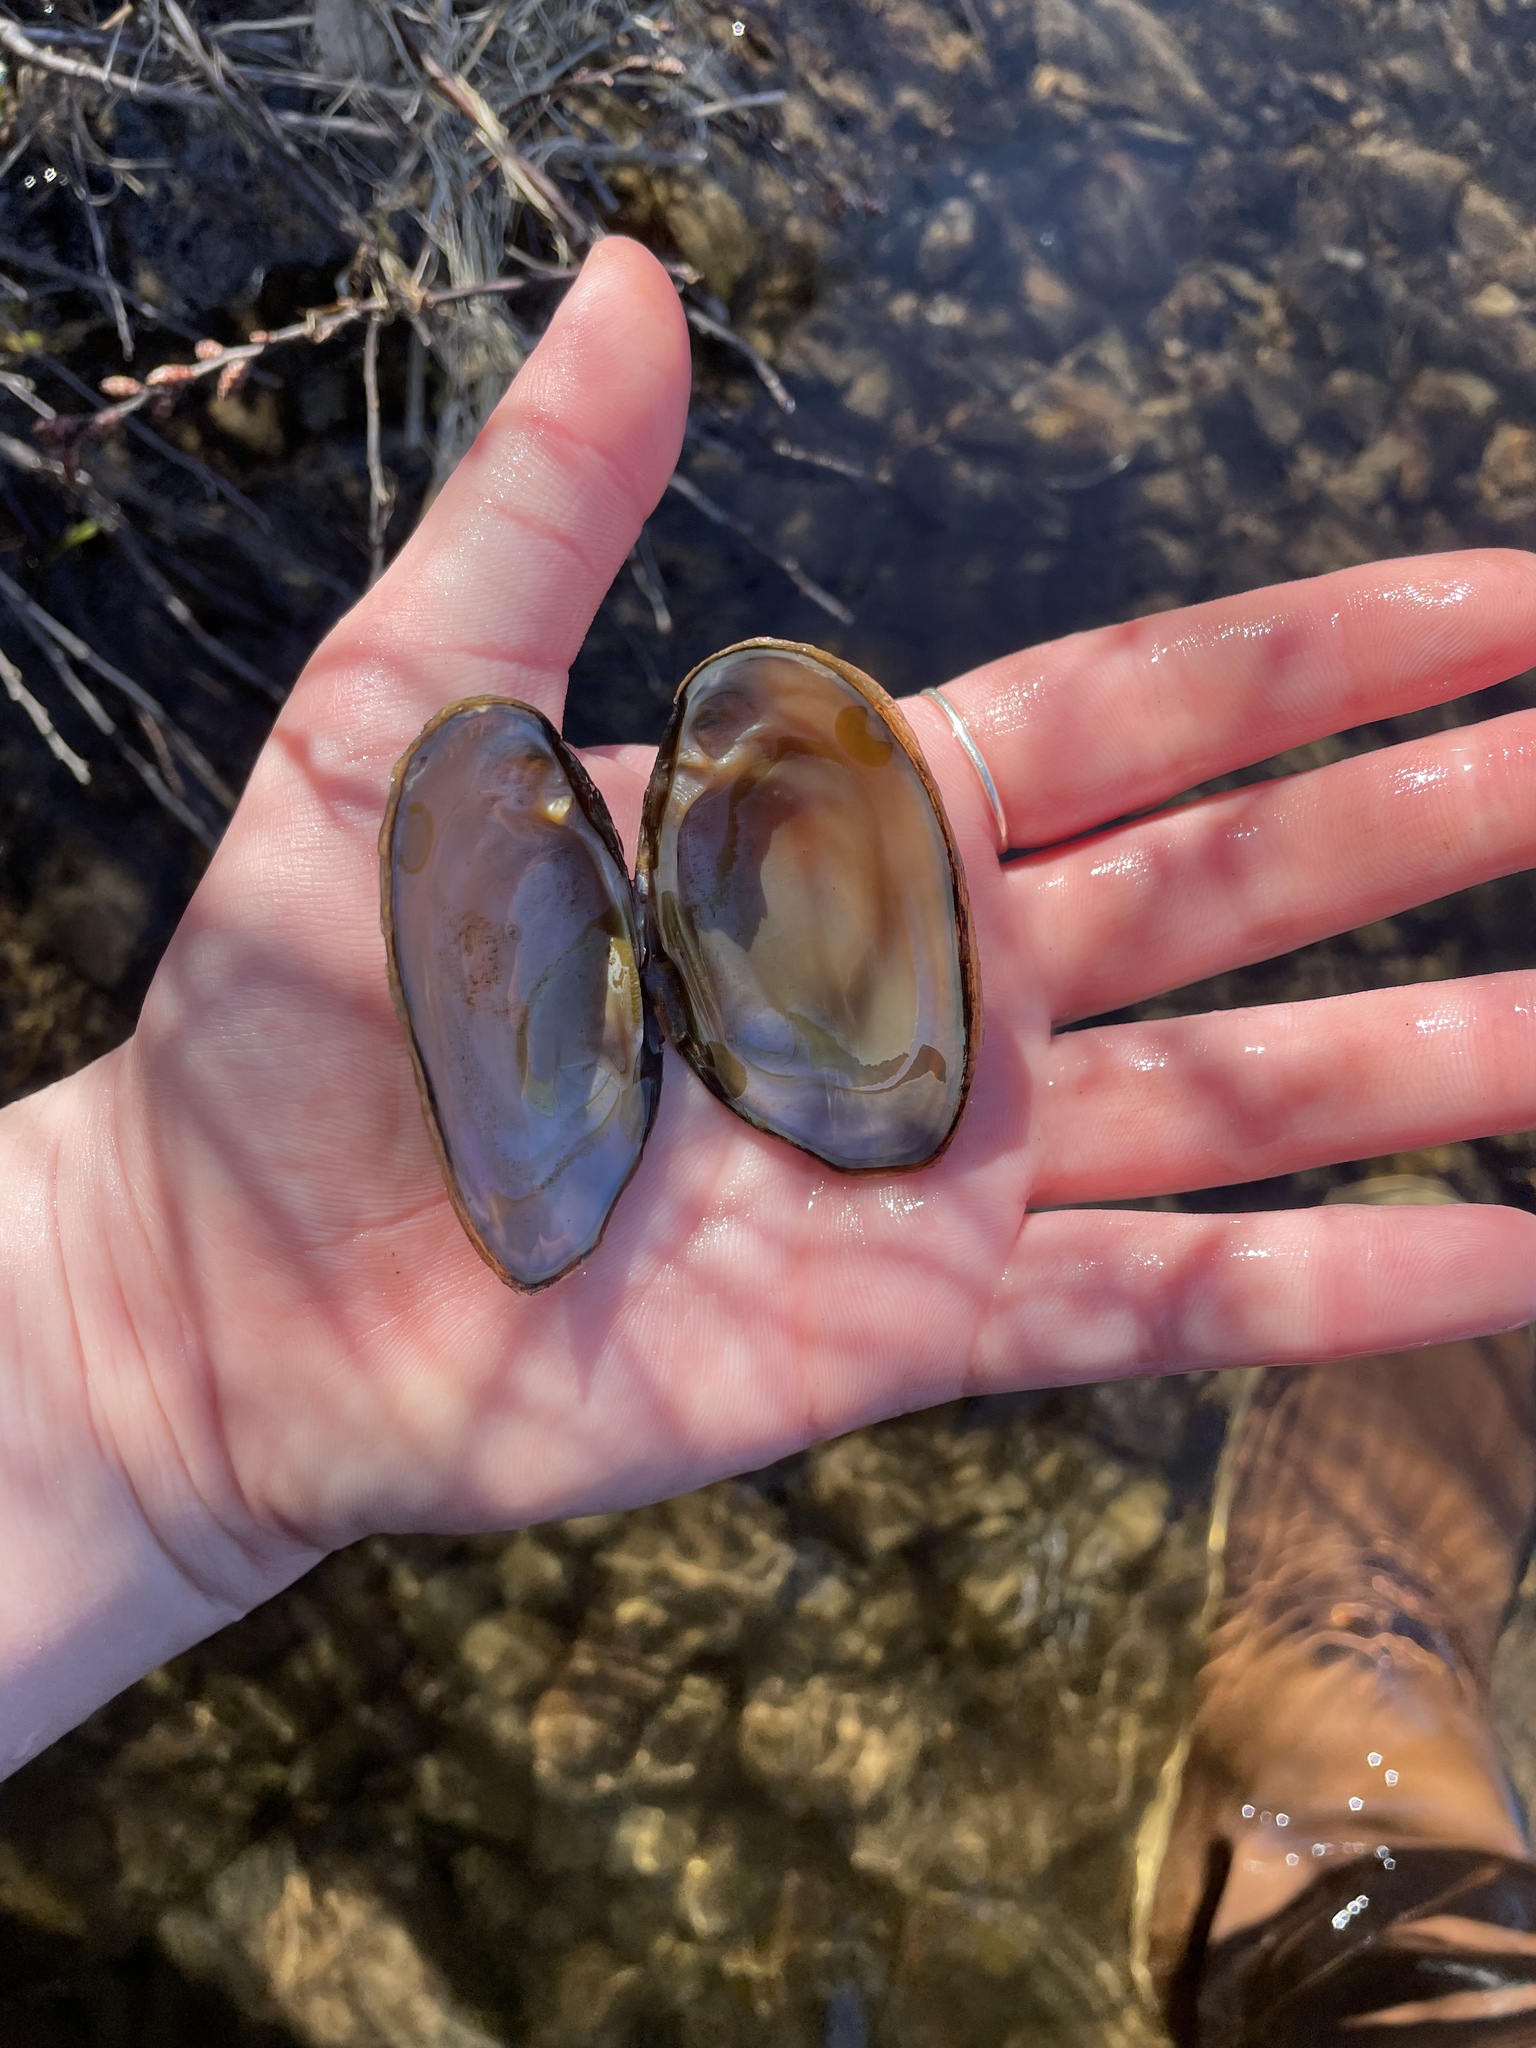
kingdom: Animalia
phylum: Mollusca
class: Bivalvia
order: Unionida
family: Unionidae
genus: Elliptio
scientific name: Elliptio complanata
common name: Eastern elliptio
